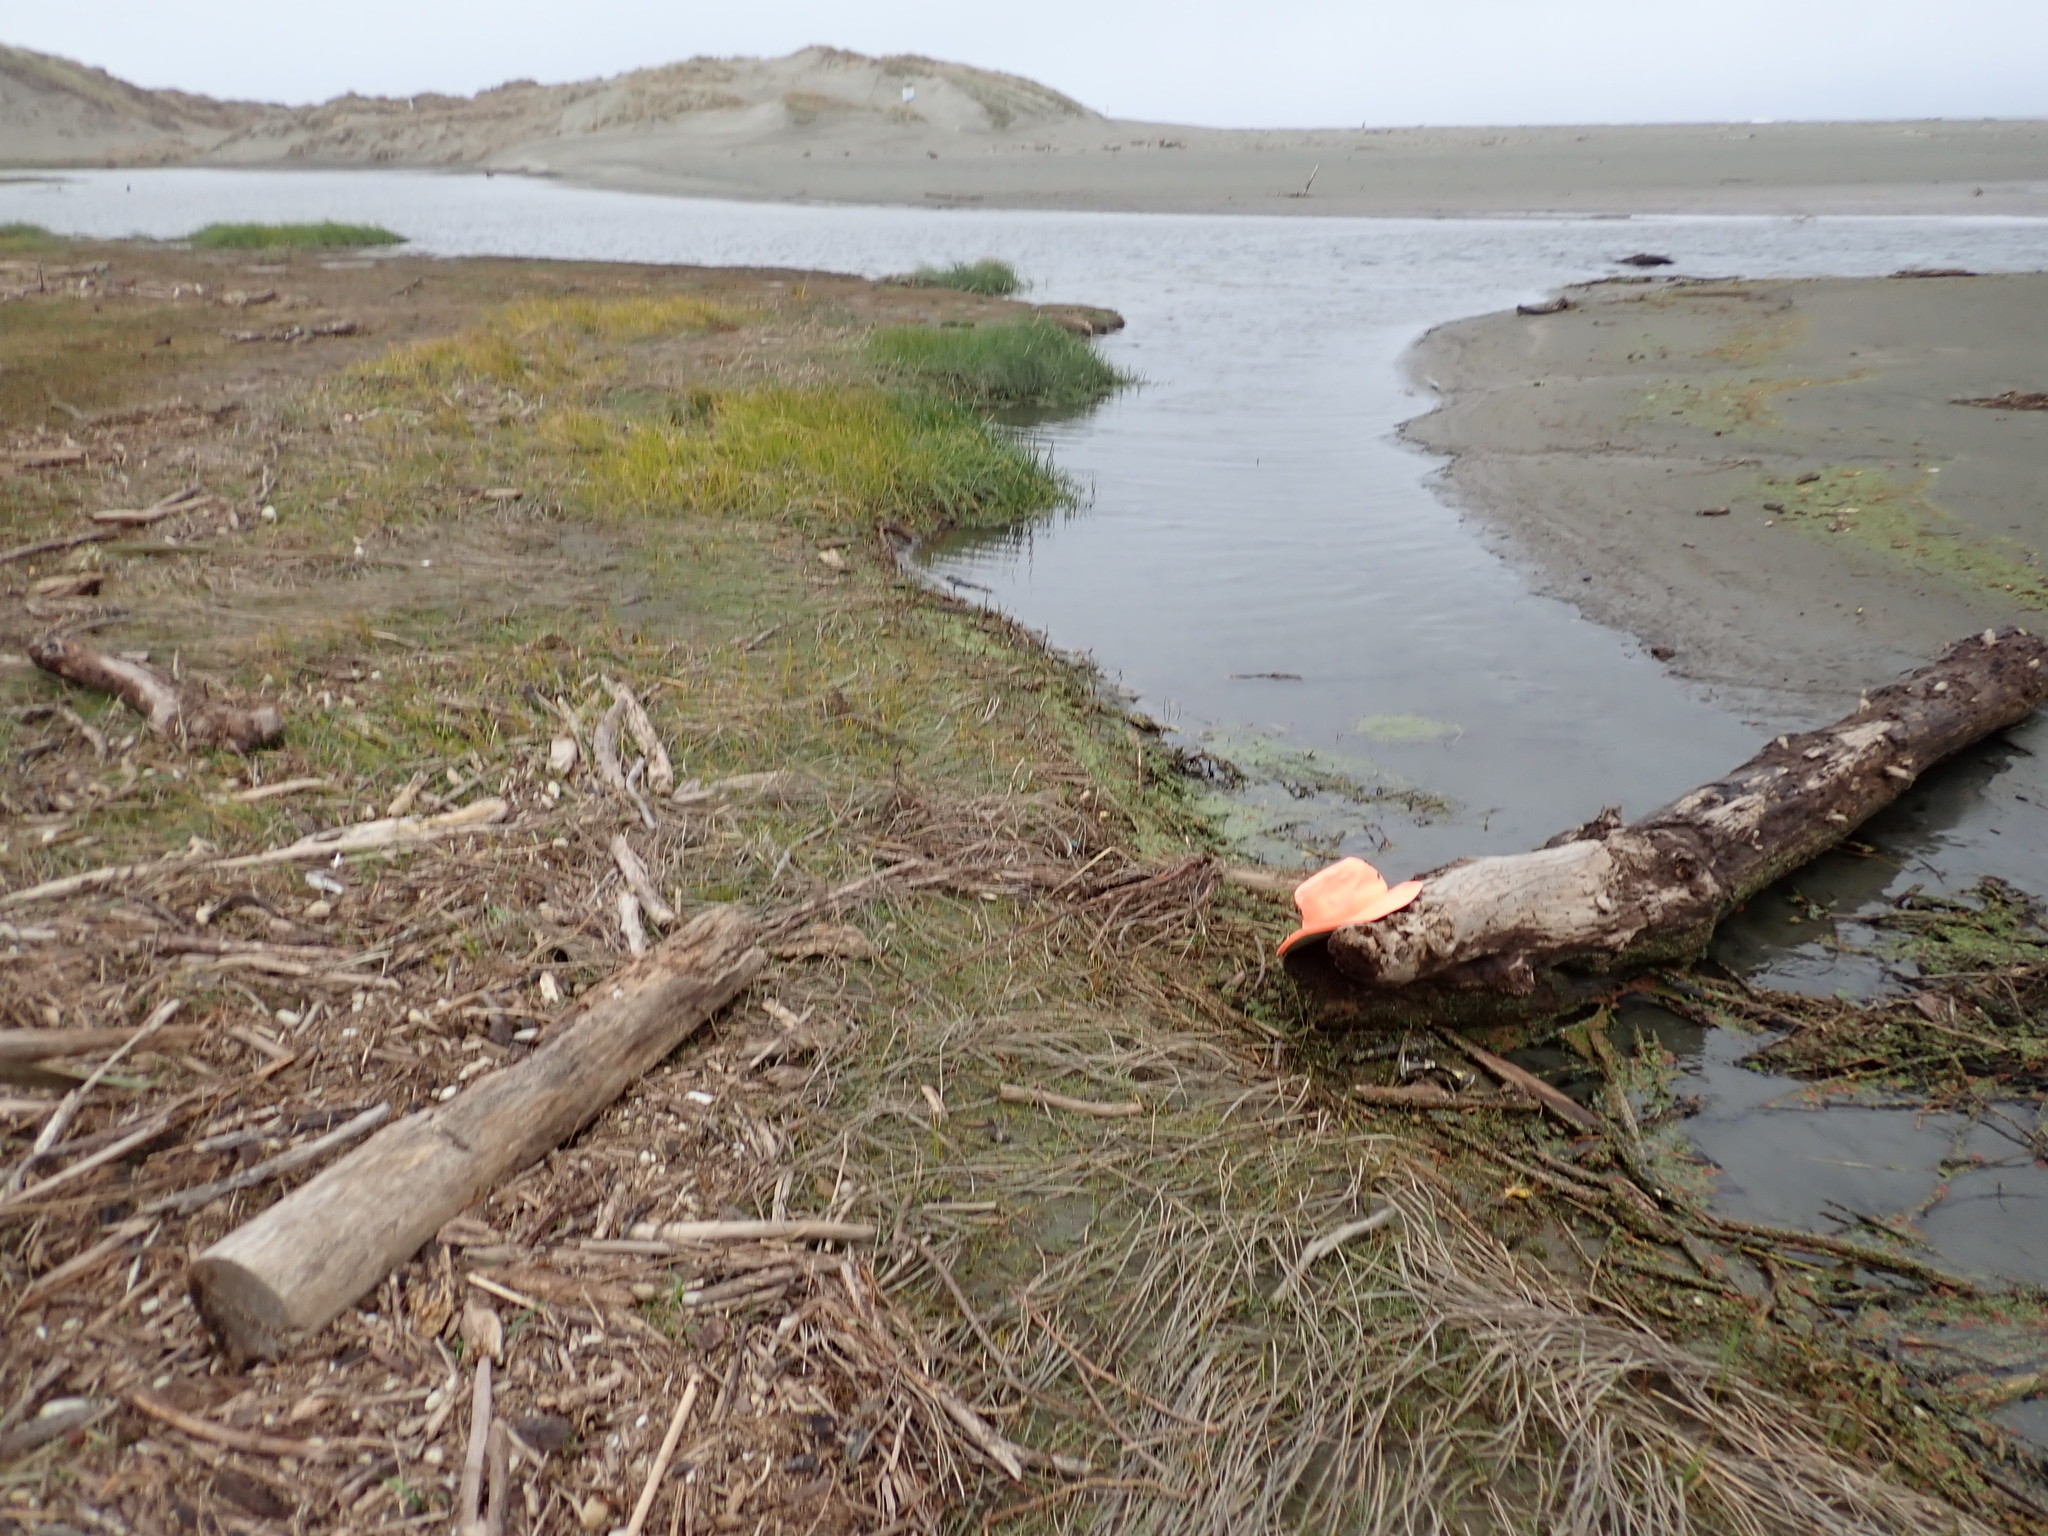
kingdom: Plantae
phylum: Tracheophyta
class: Polypodiopsida
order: Salviniales
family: Salviniaceae
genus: Azolla
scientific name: Azolla rubra
